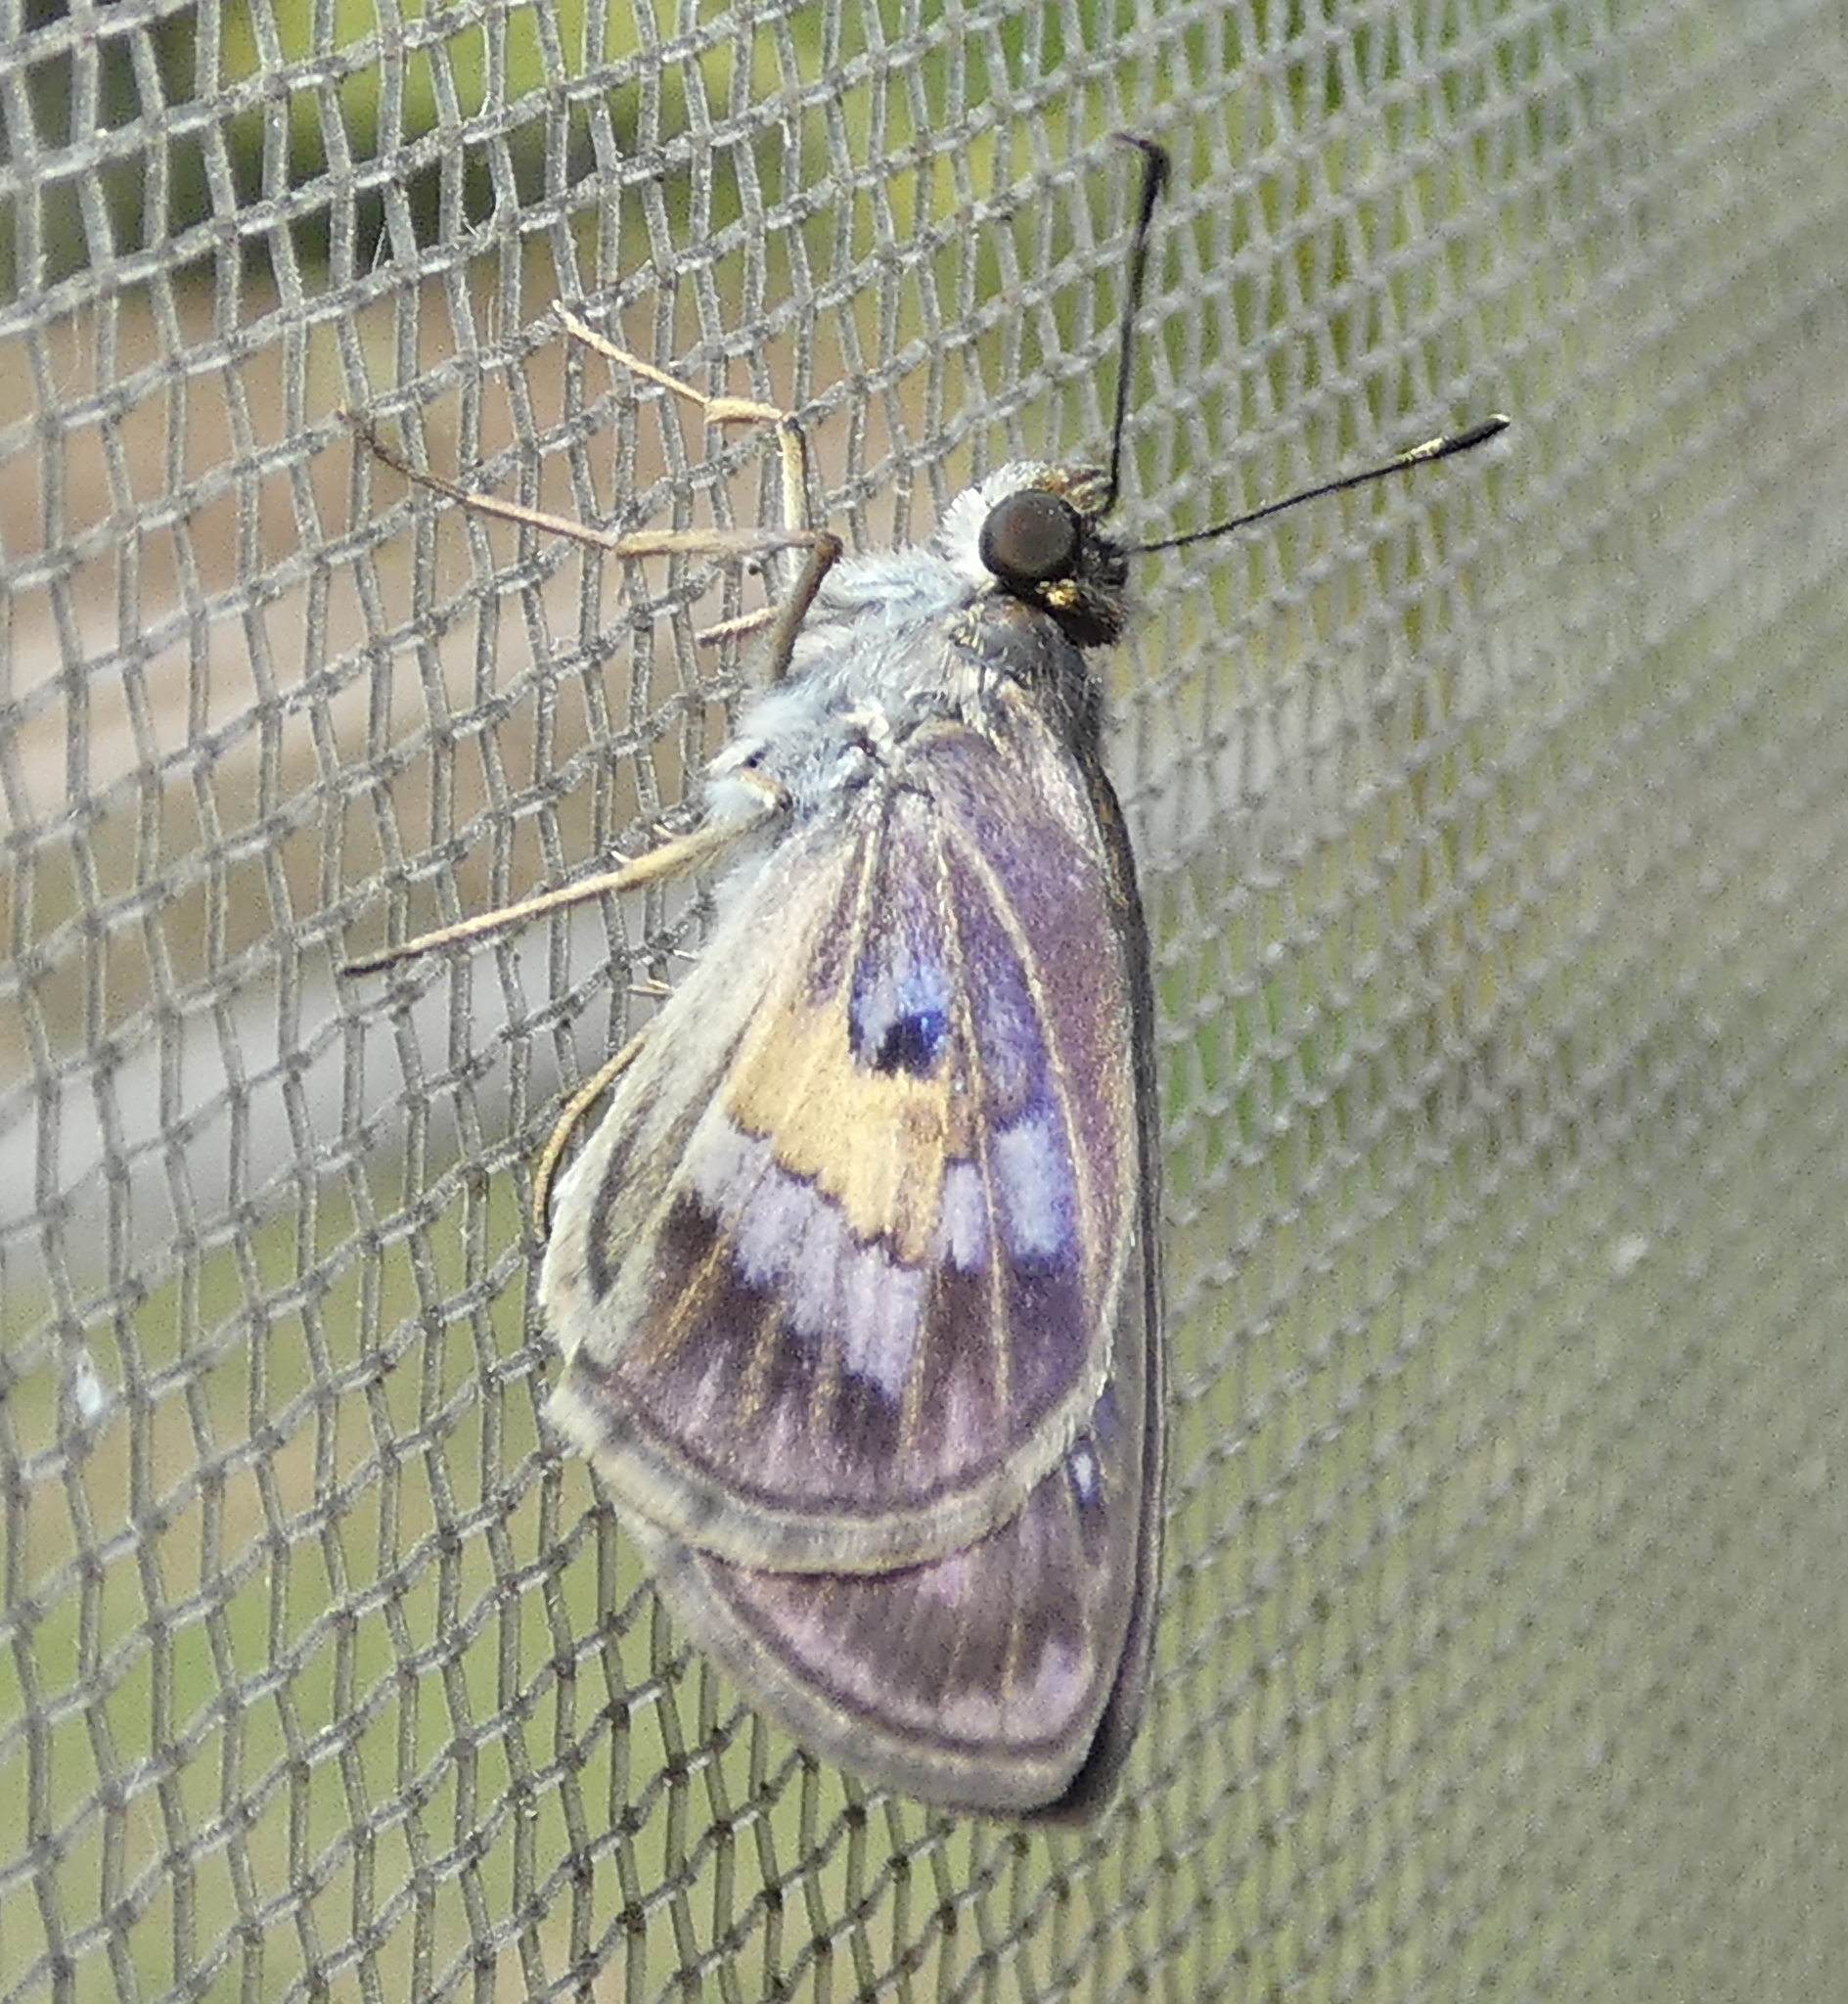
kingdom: Animalia
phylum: Arthropoda
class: Insecta
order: Lepidoptera
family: Hesperiidae
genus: Phanis
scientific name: Phanis aletes
